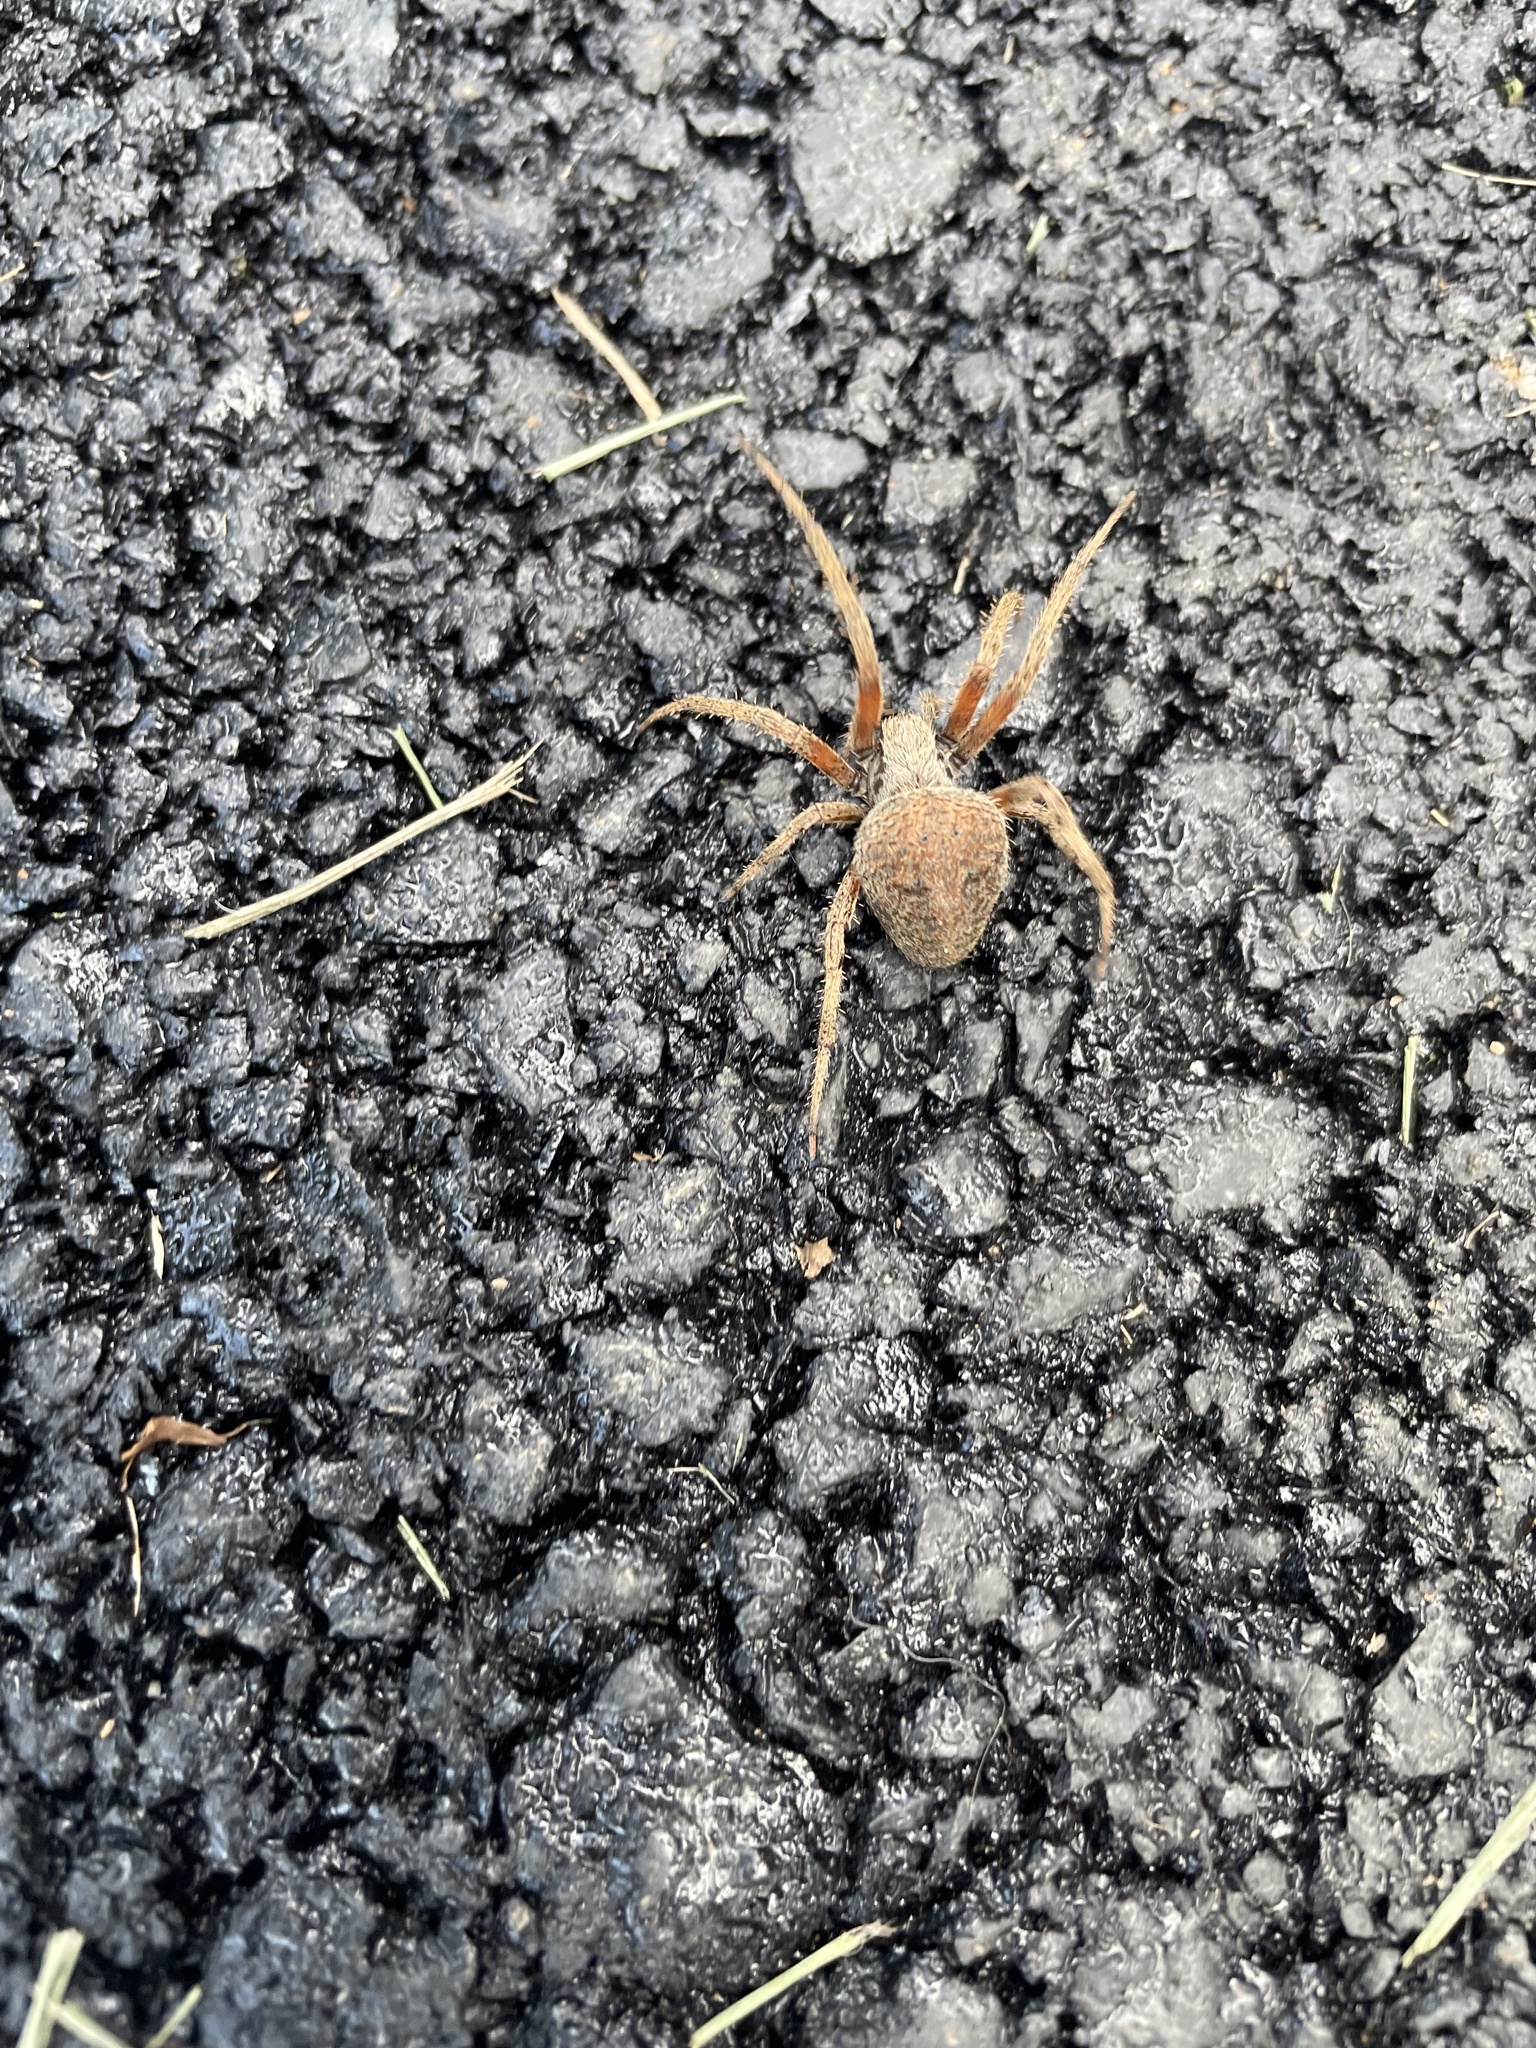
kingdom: Animalia
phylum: Arthropoda
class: Arachnida
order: Araneae
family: Araneidae
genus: Neoscona
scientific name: Neoscona crucifera
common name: Spotted orbweaver
